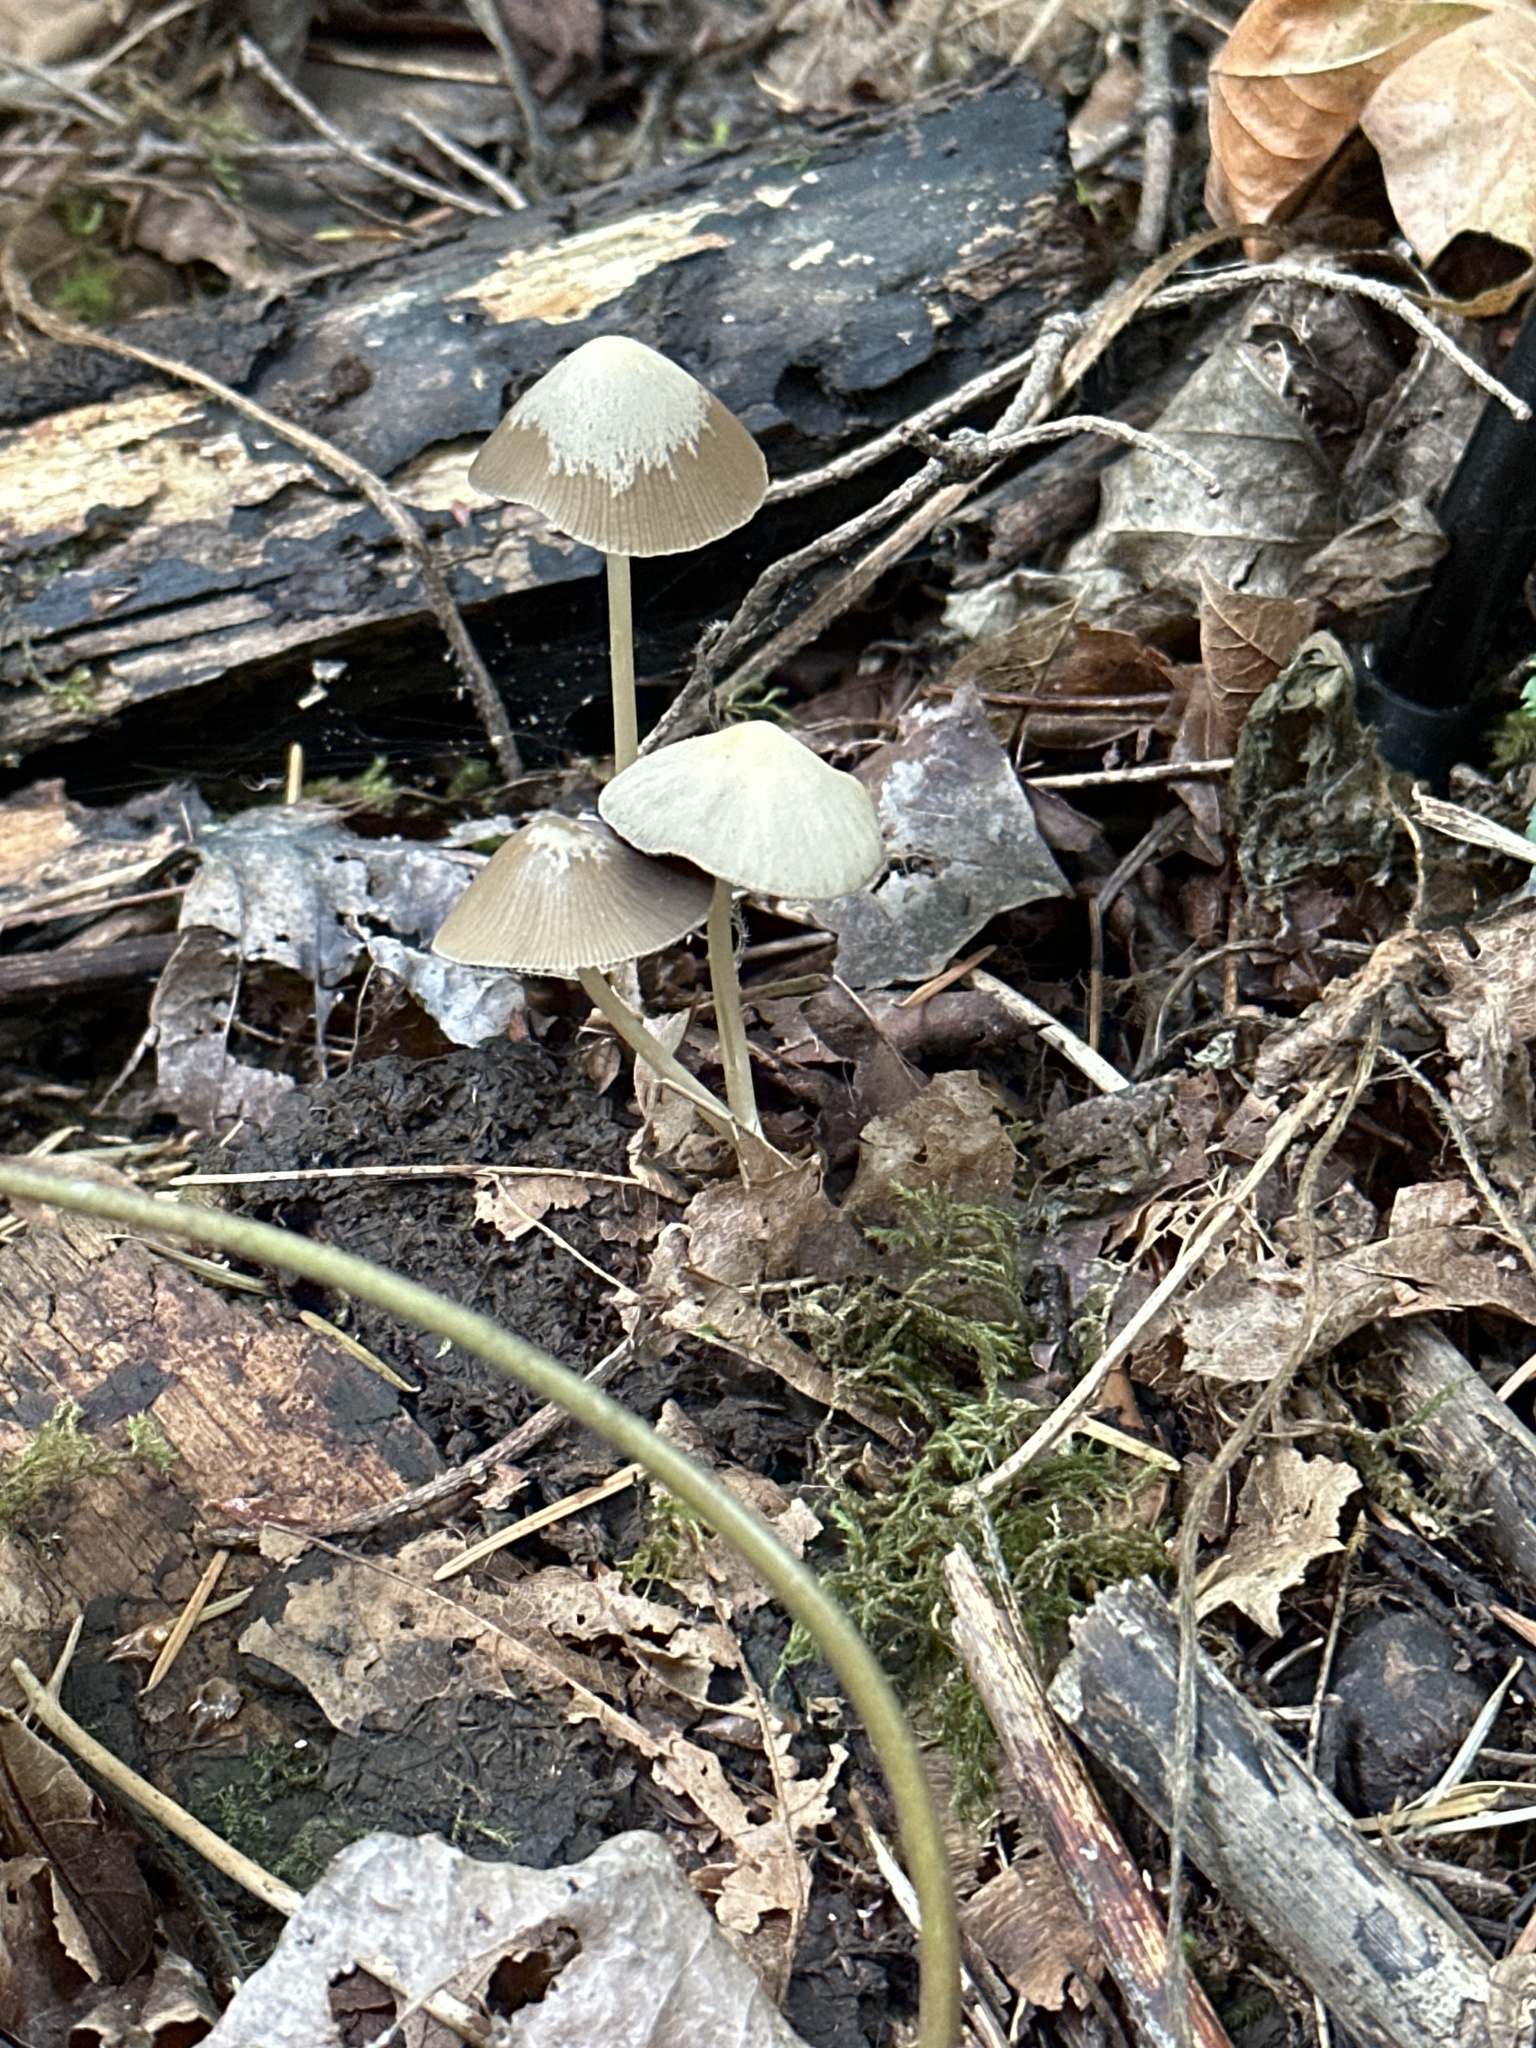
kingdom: Fungi
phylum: Basidiomycota
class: Agaricomycetes
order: Agaricales
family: Mycenaceae
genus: Mycena
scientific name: Mycena galericulata
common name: Bonnet mycena
